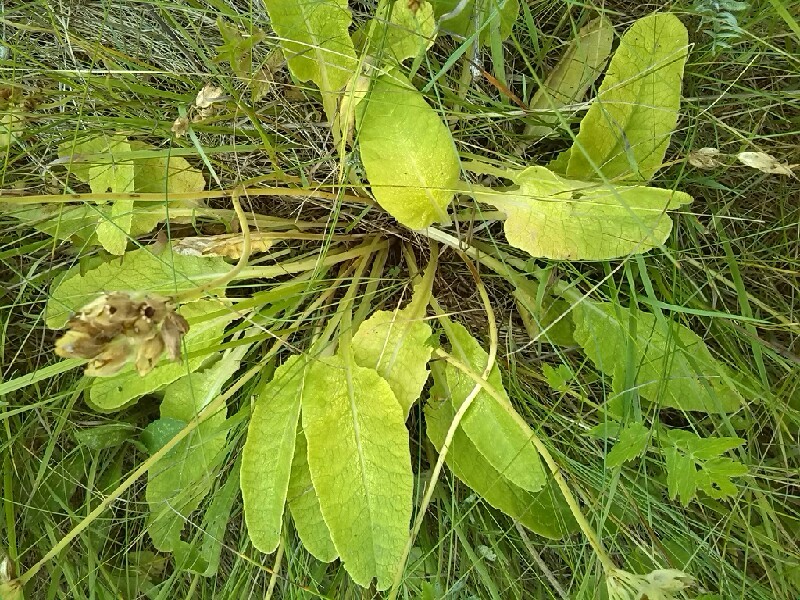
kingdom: Plantae
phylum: Tracheophyta
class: Magnoliopsida
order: Ericales
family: Primulaceae
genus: Primula
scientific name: Primula veris
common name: Cowslip
